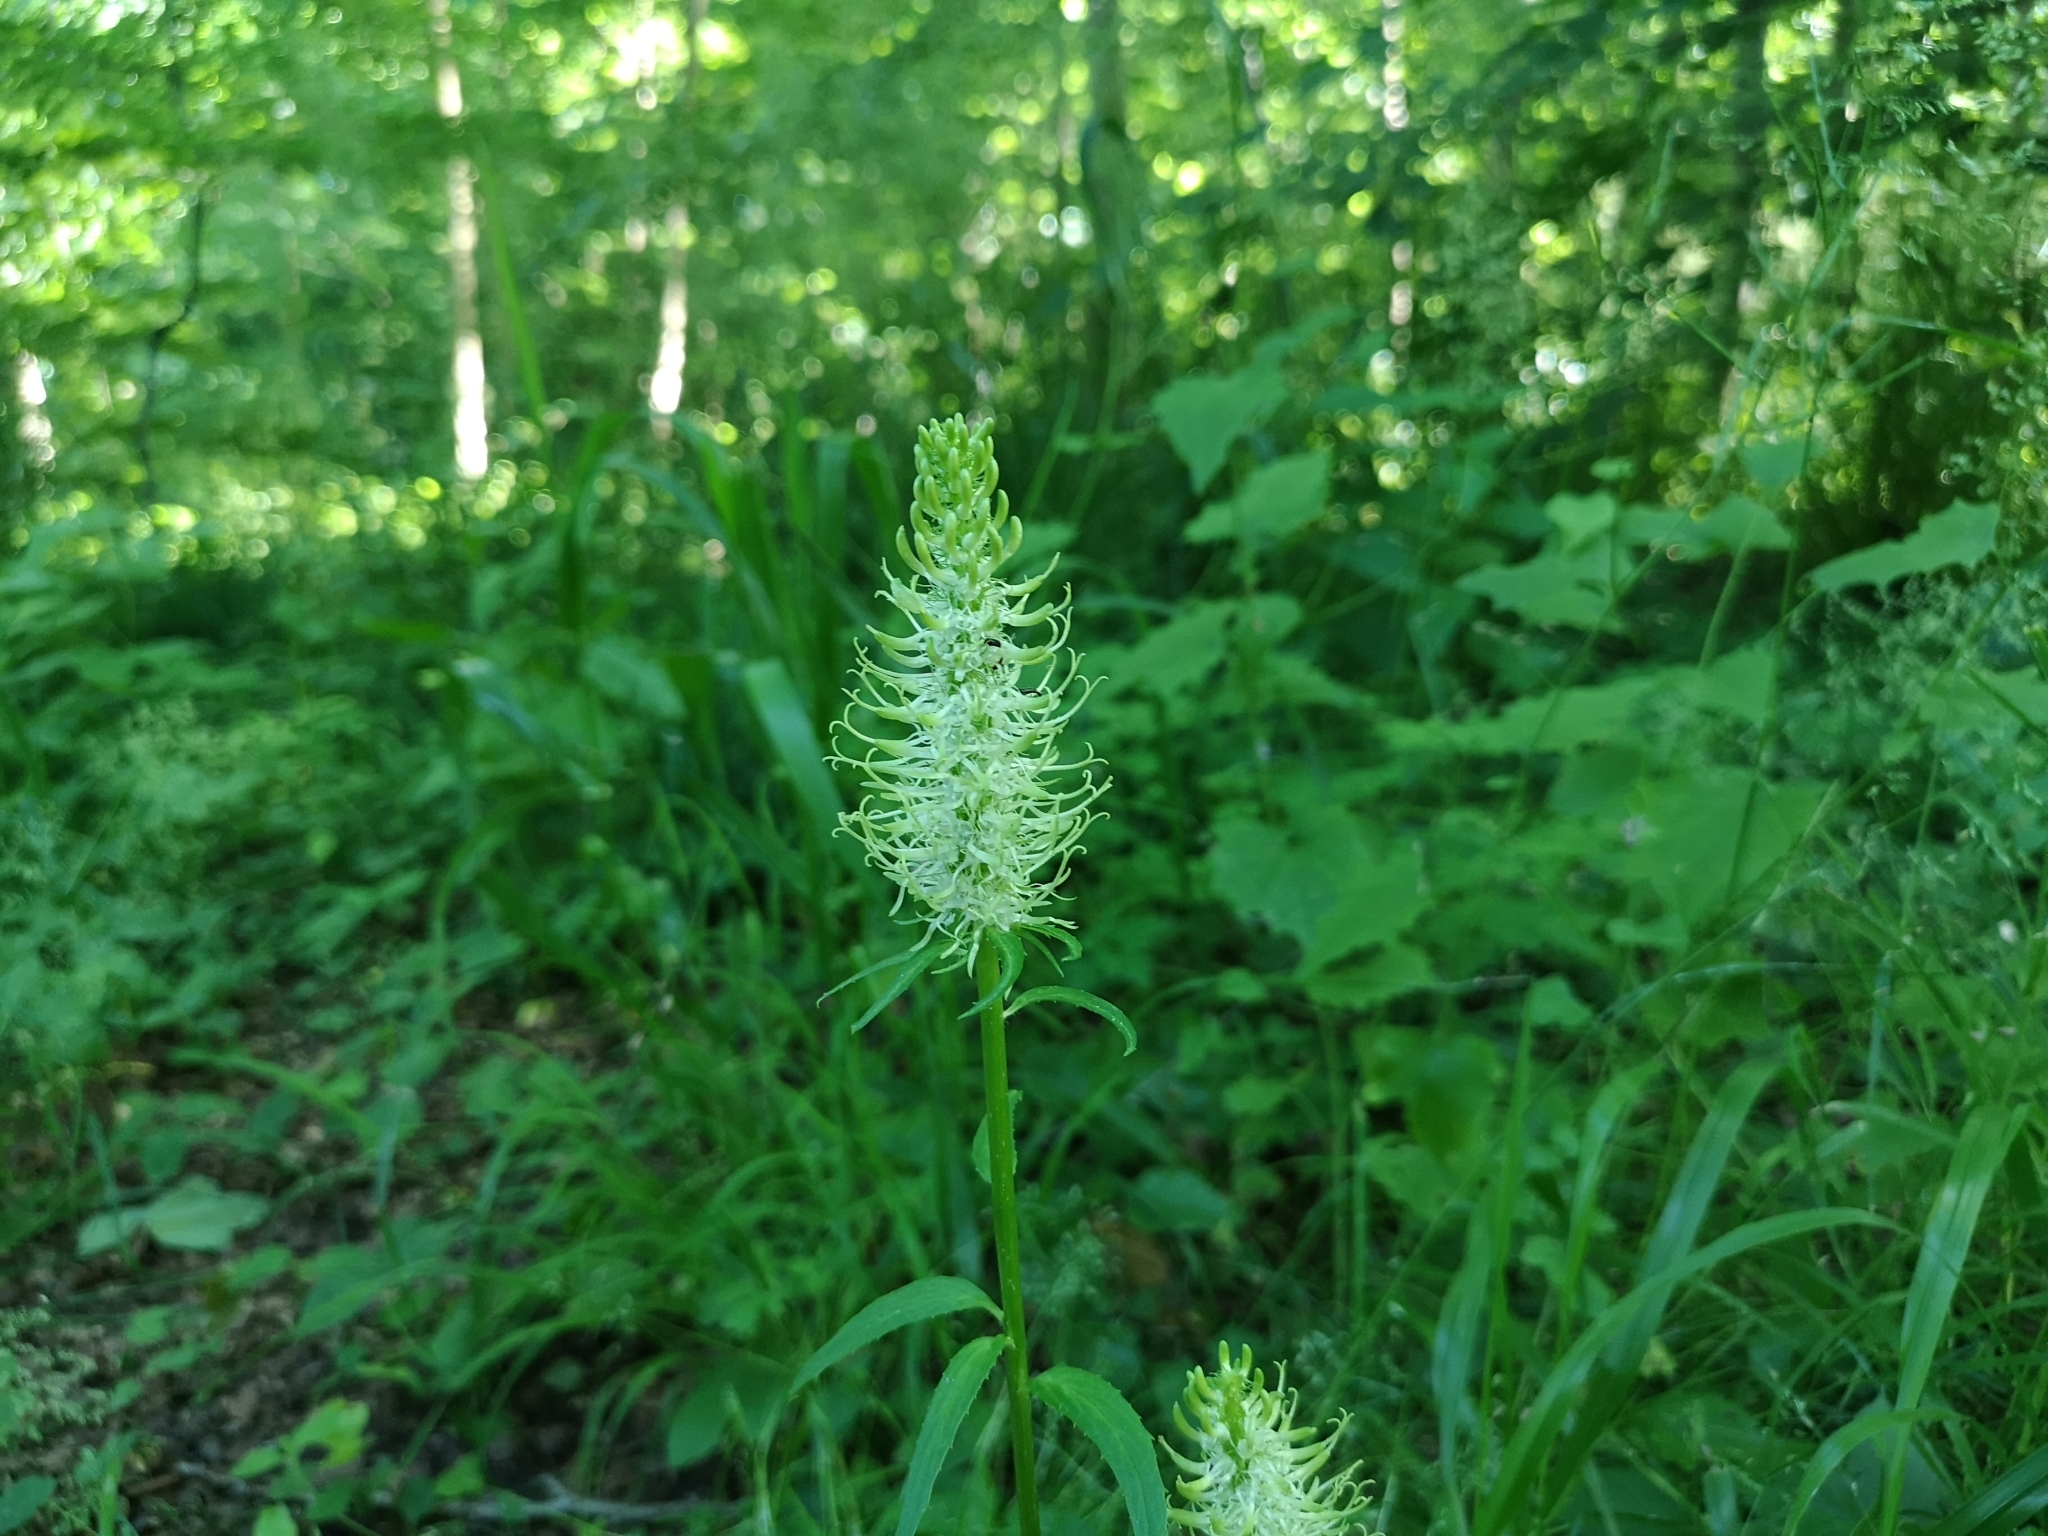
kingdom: Plantae
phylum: Tracheophyta
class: Magnoliopsida
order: Asterales
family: Campanulaceae
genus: Phyteuma
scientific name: Phyteuma spicatum
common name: Spiked rampion
